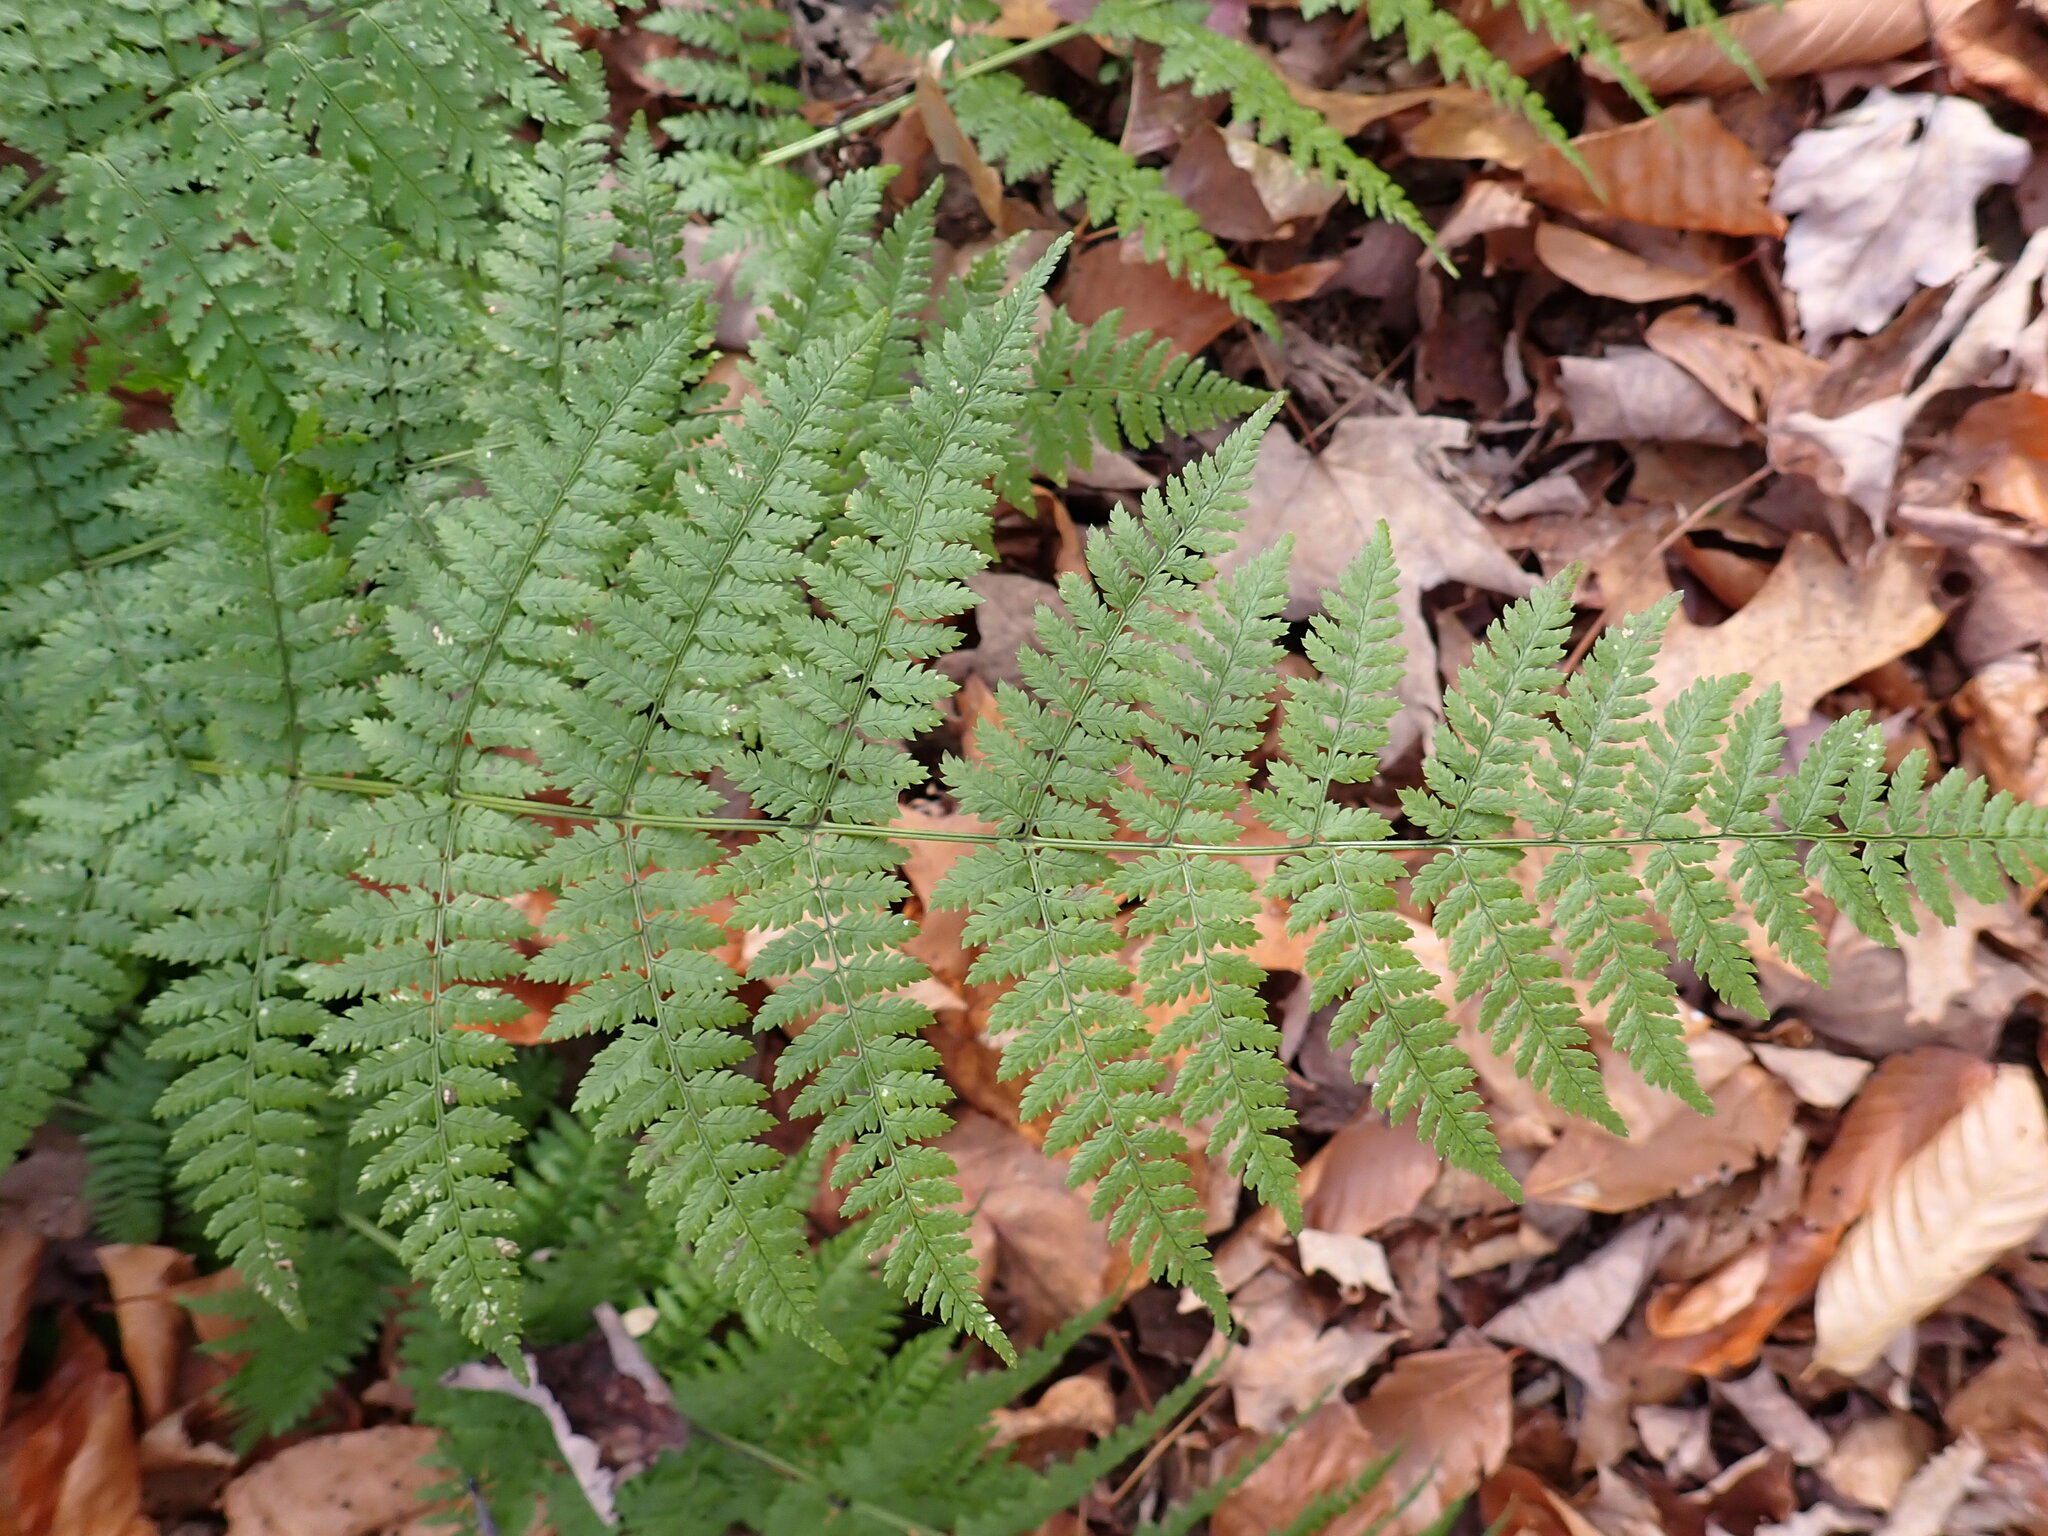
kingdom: Plantae
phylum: Tracheophyta
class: Polypodiopsida
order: Polypodiales
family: Dryopteridaceae
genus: Dryopteris
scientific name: Dryopteris intermedia
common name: Evergreen wood fern
